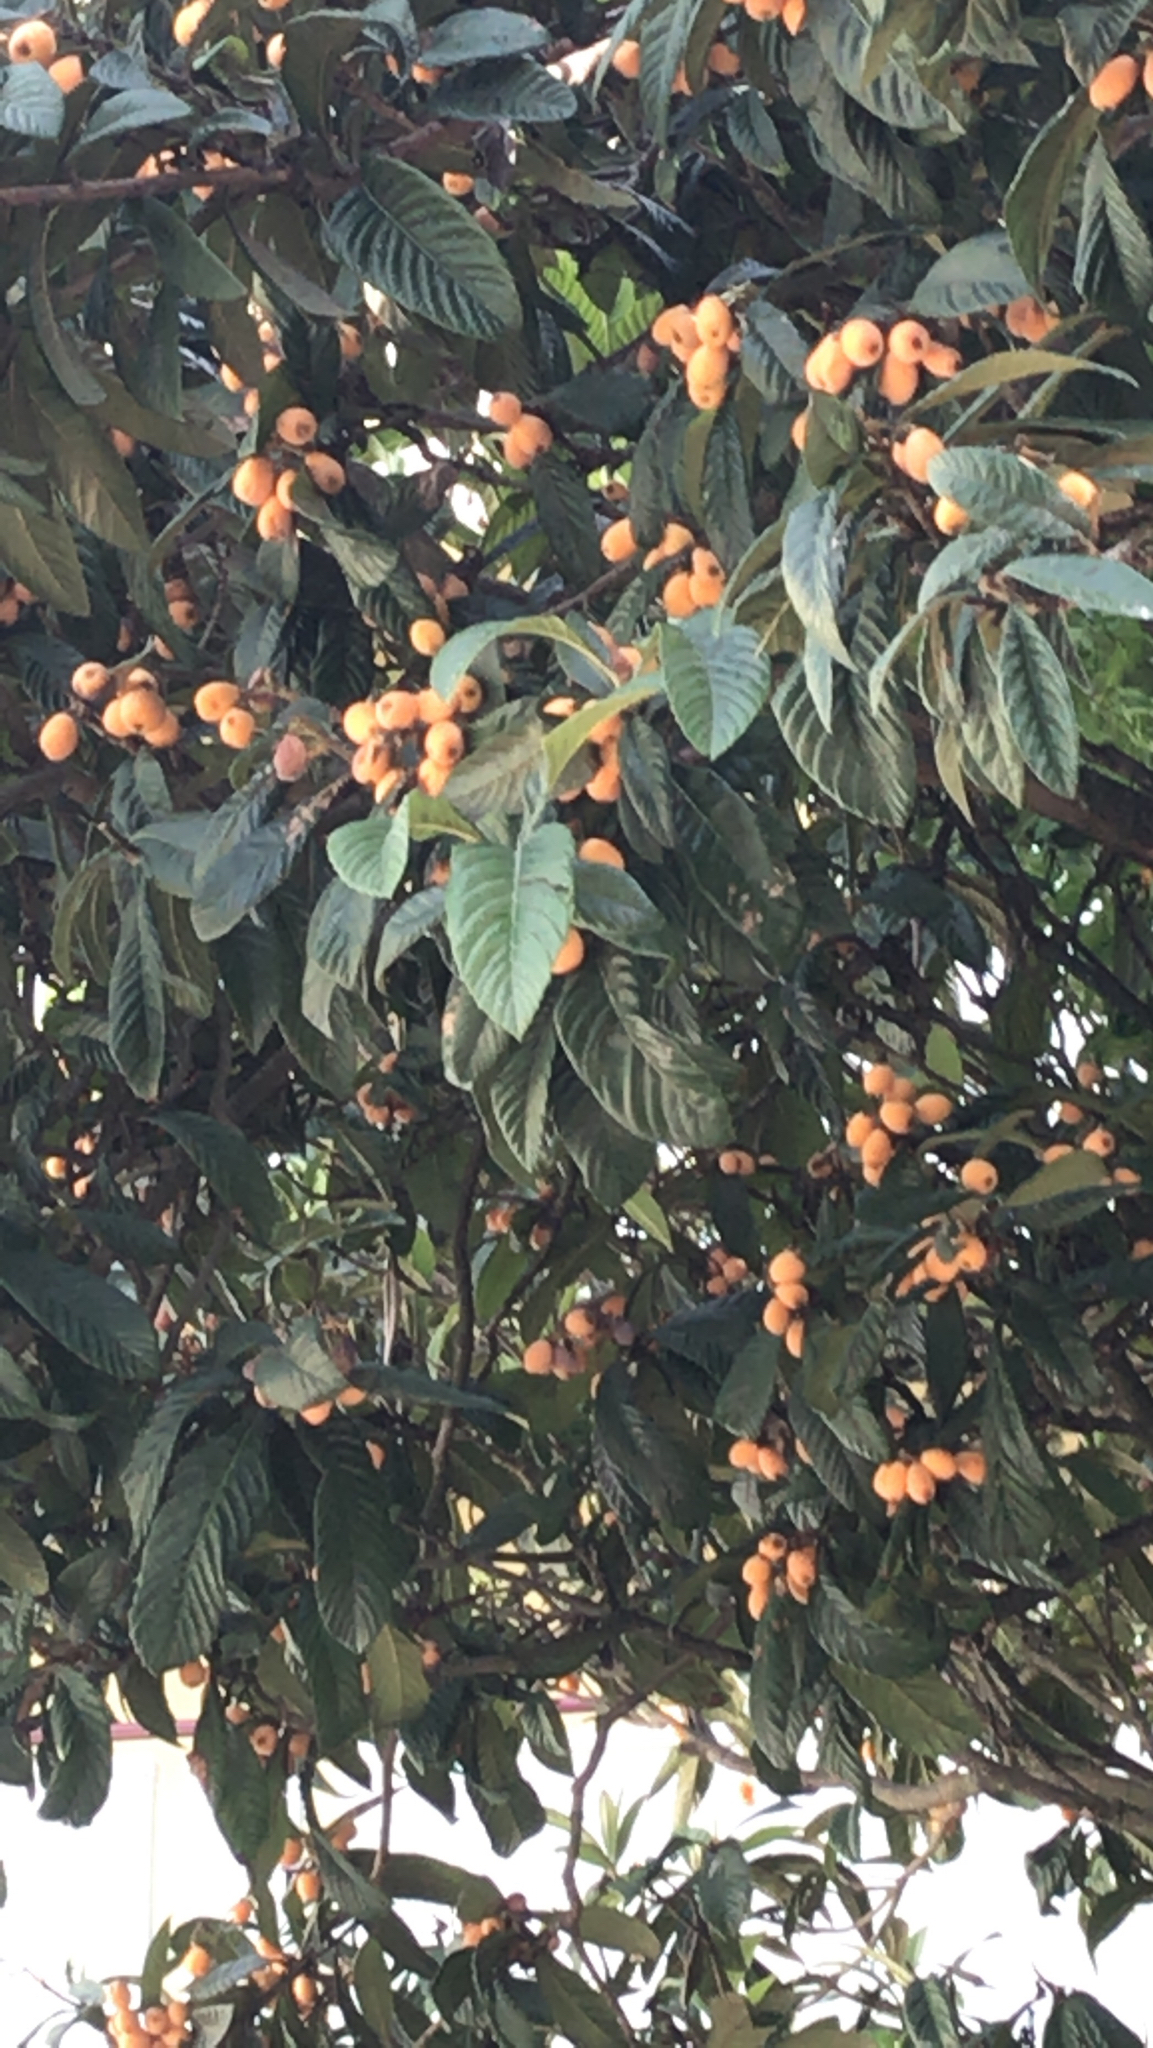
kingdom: Plantae
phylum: Tracheophyta
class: Magnoliopsida
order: Rosales
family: Rosaceae
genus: Rhaphiolepis
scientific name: Rhaphiolepis bibas
